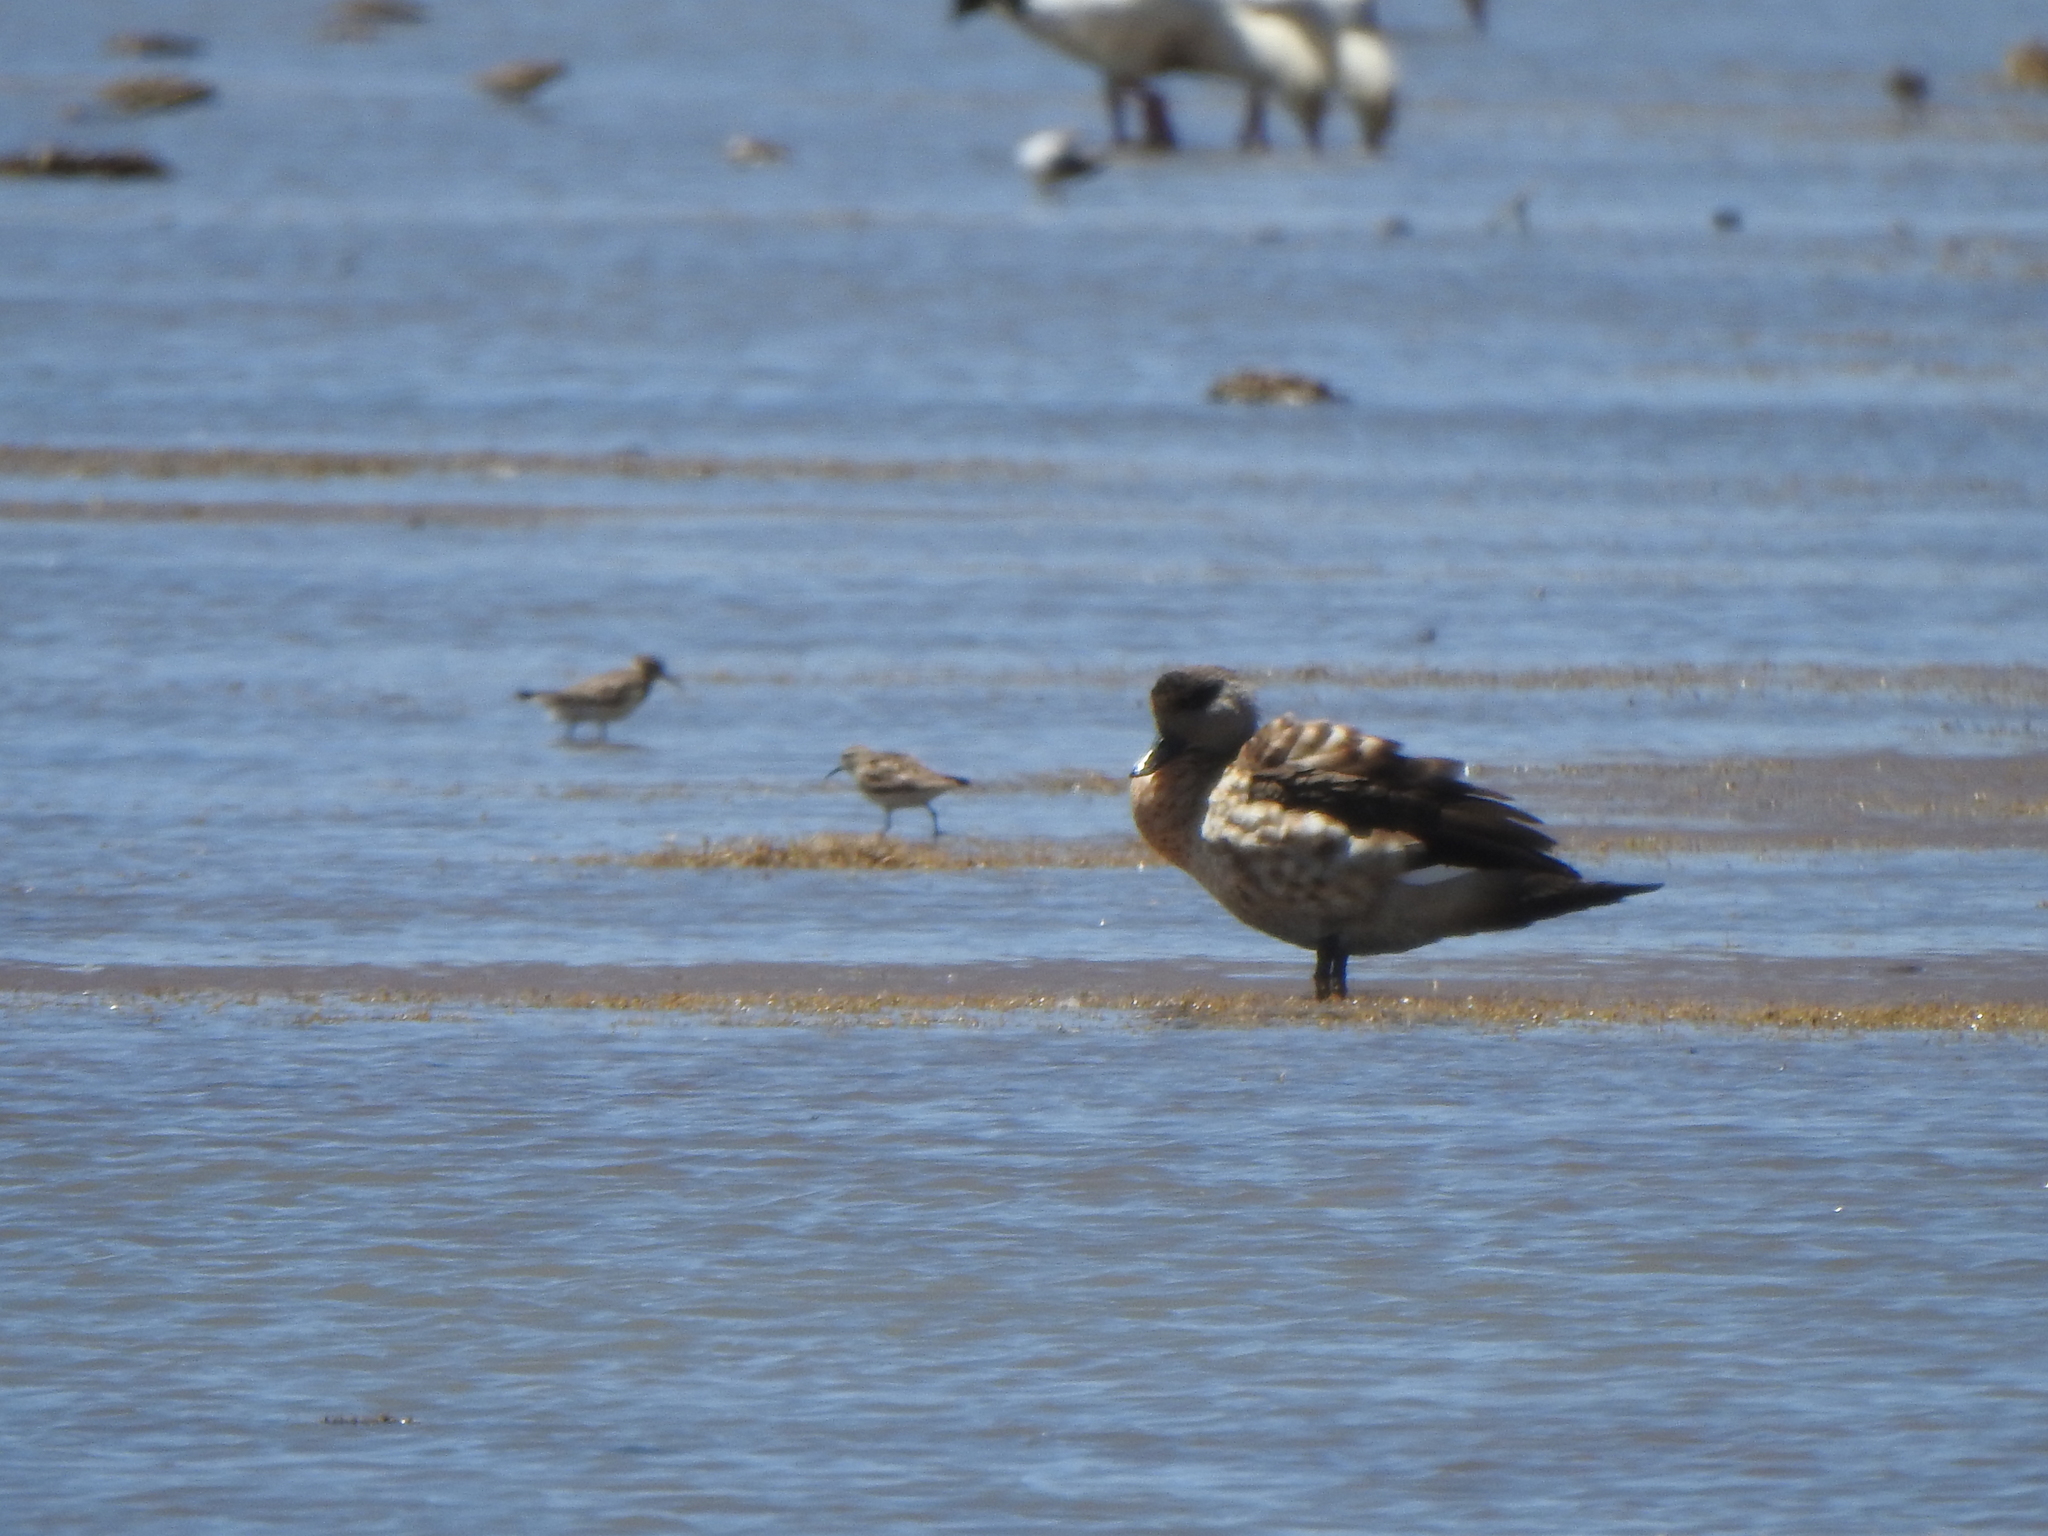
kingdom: Animalia
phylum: Chordata
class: Aves
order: Anseriformes
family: Anatidae
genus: Lophonetta
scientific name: Lophonetta specularioides
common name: Crested duck
